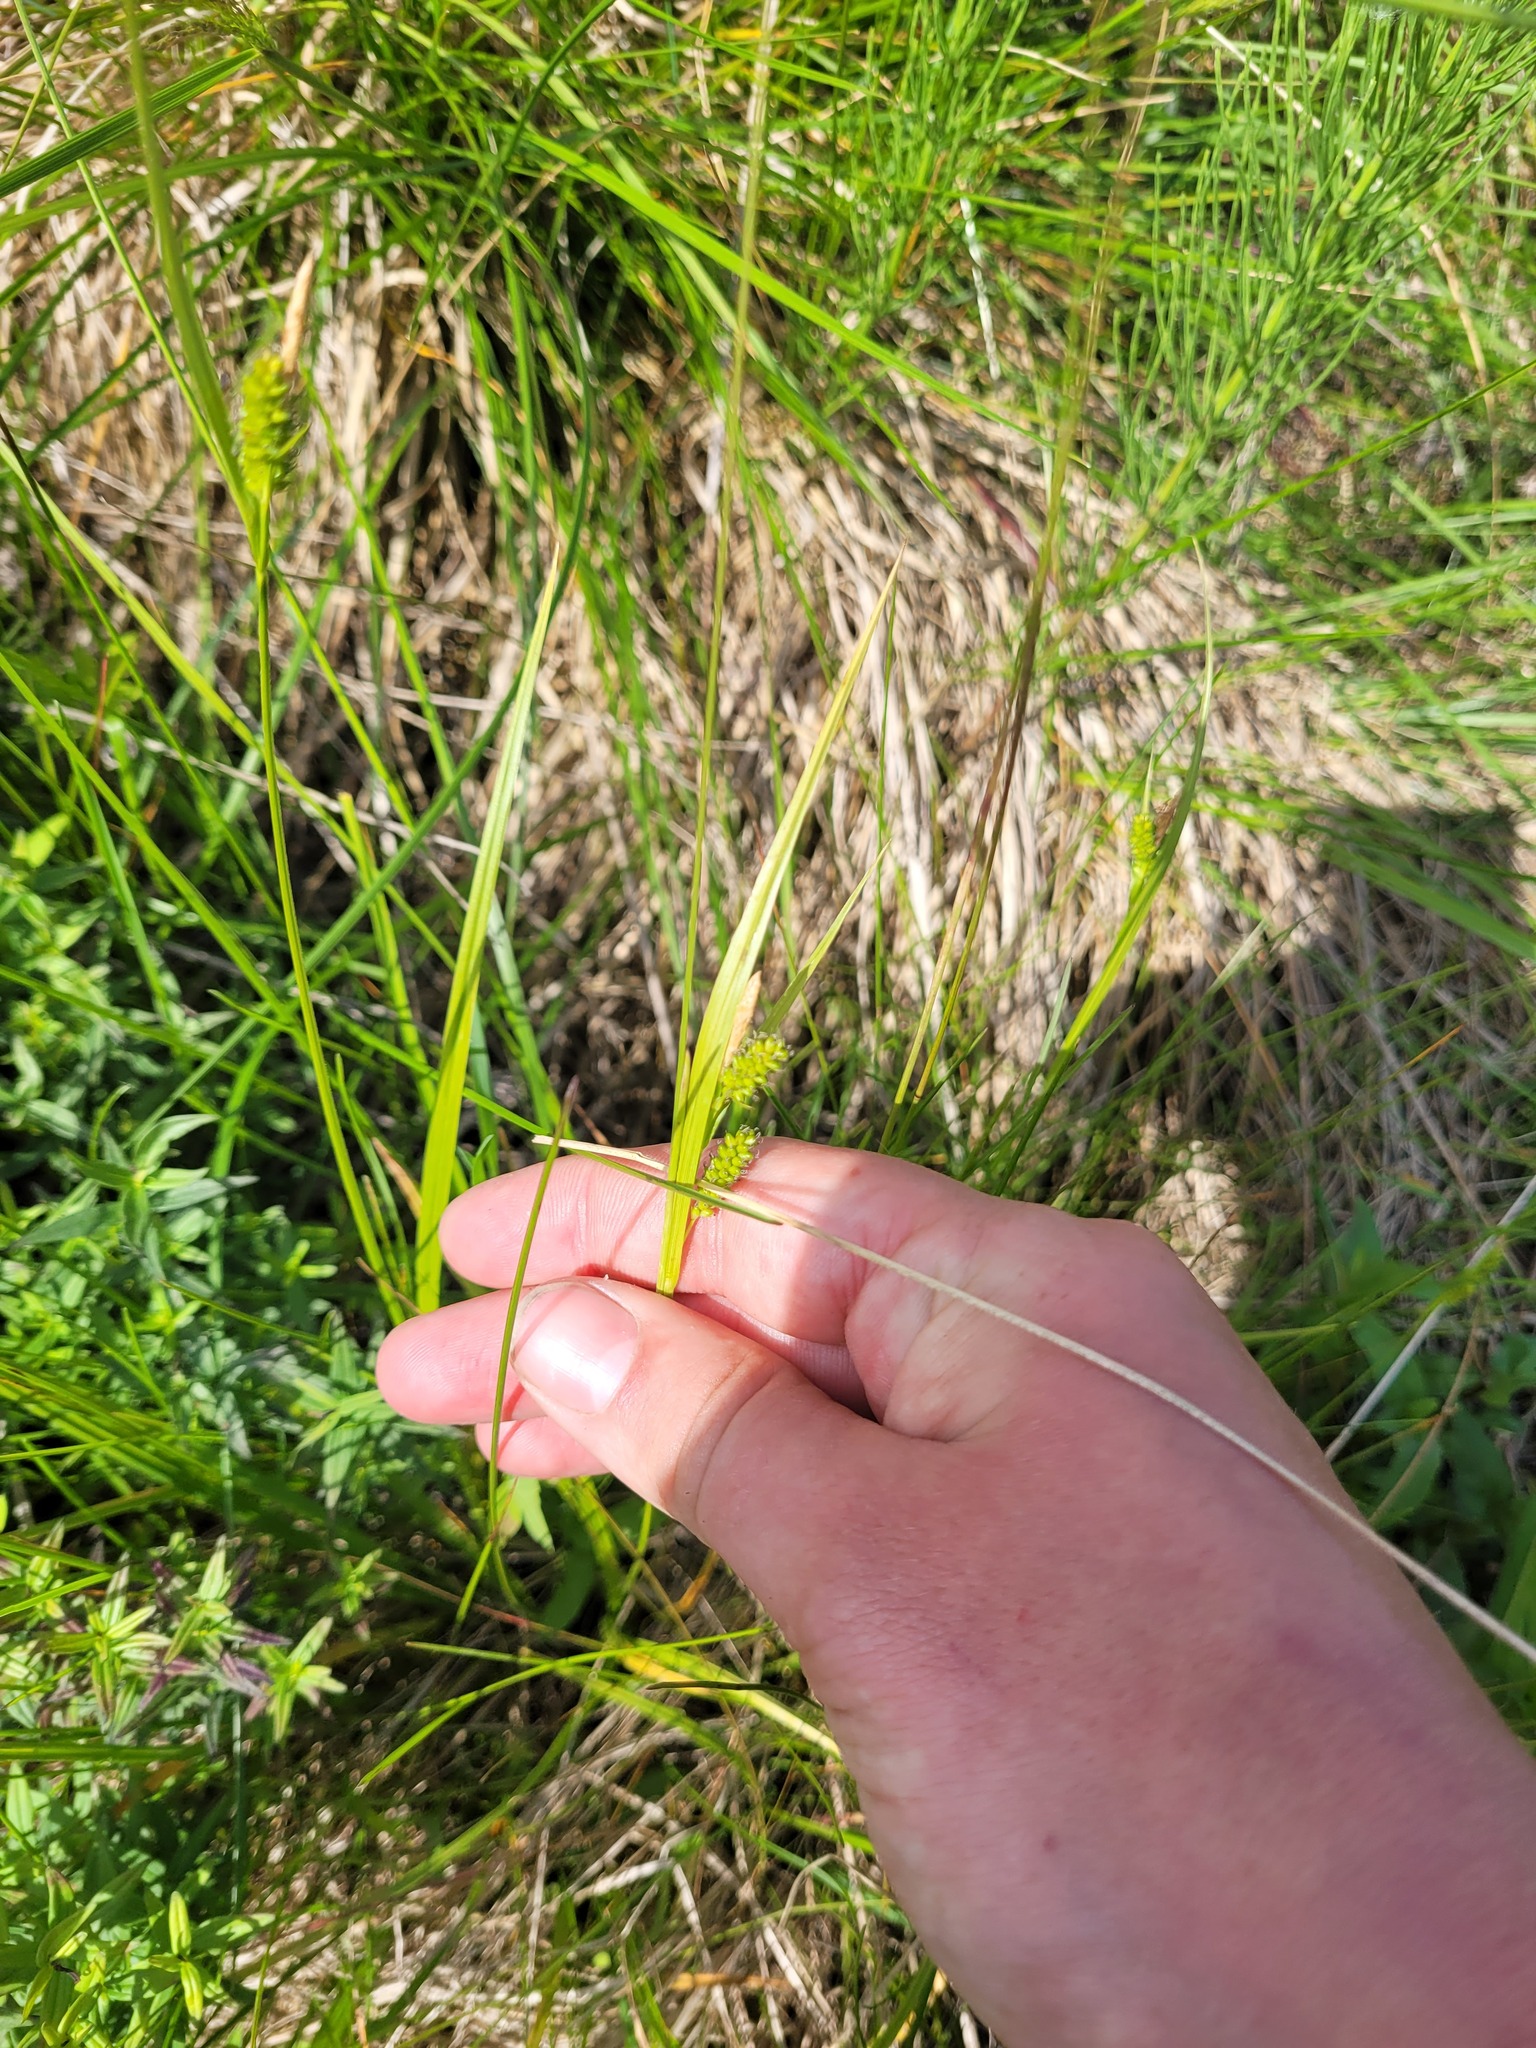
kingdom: Plantae
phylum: Tracheophyta
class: Liliopsida
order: Poales
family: Cyperaceae
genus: Carex
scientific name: Carex pallescens
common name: Pale sedge
